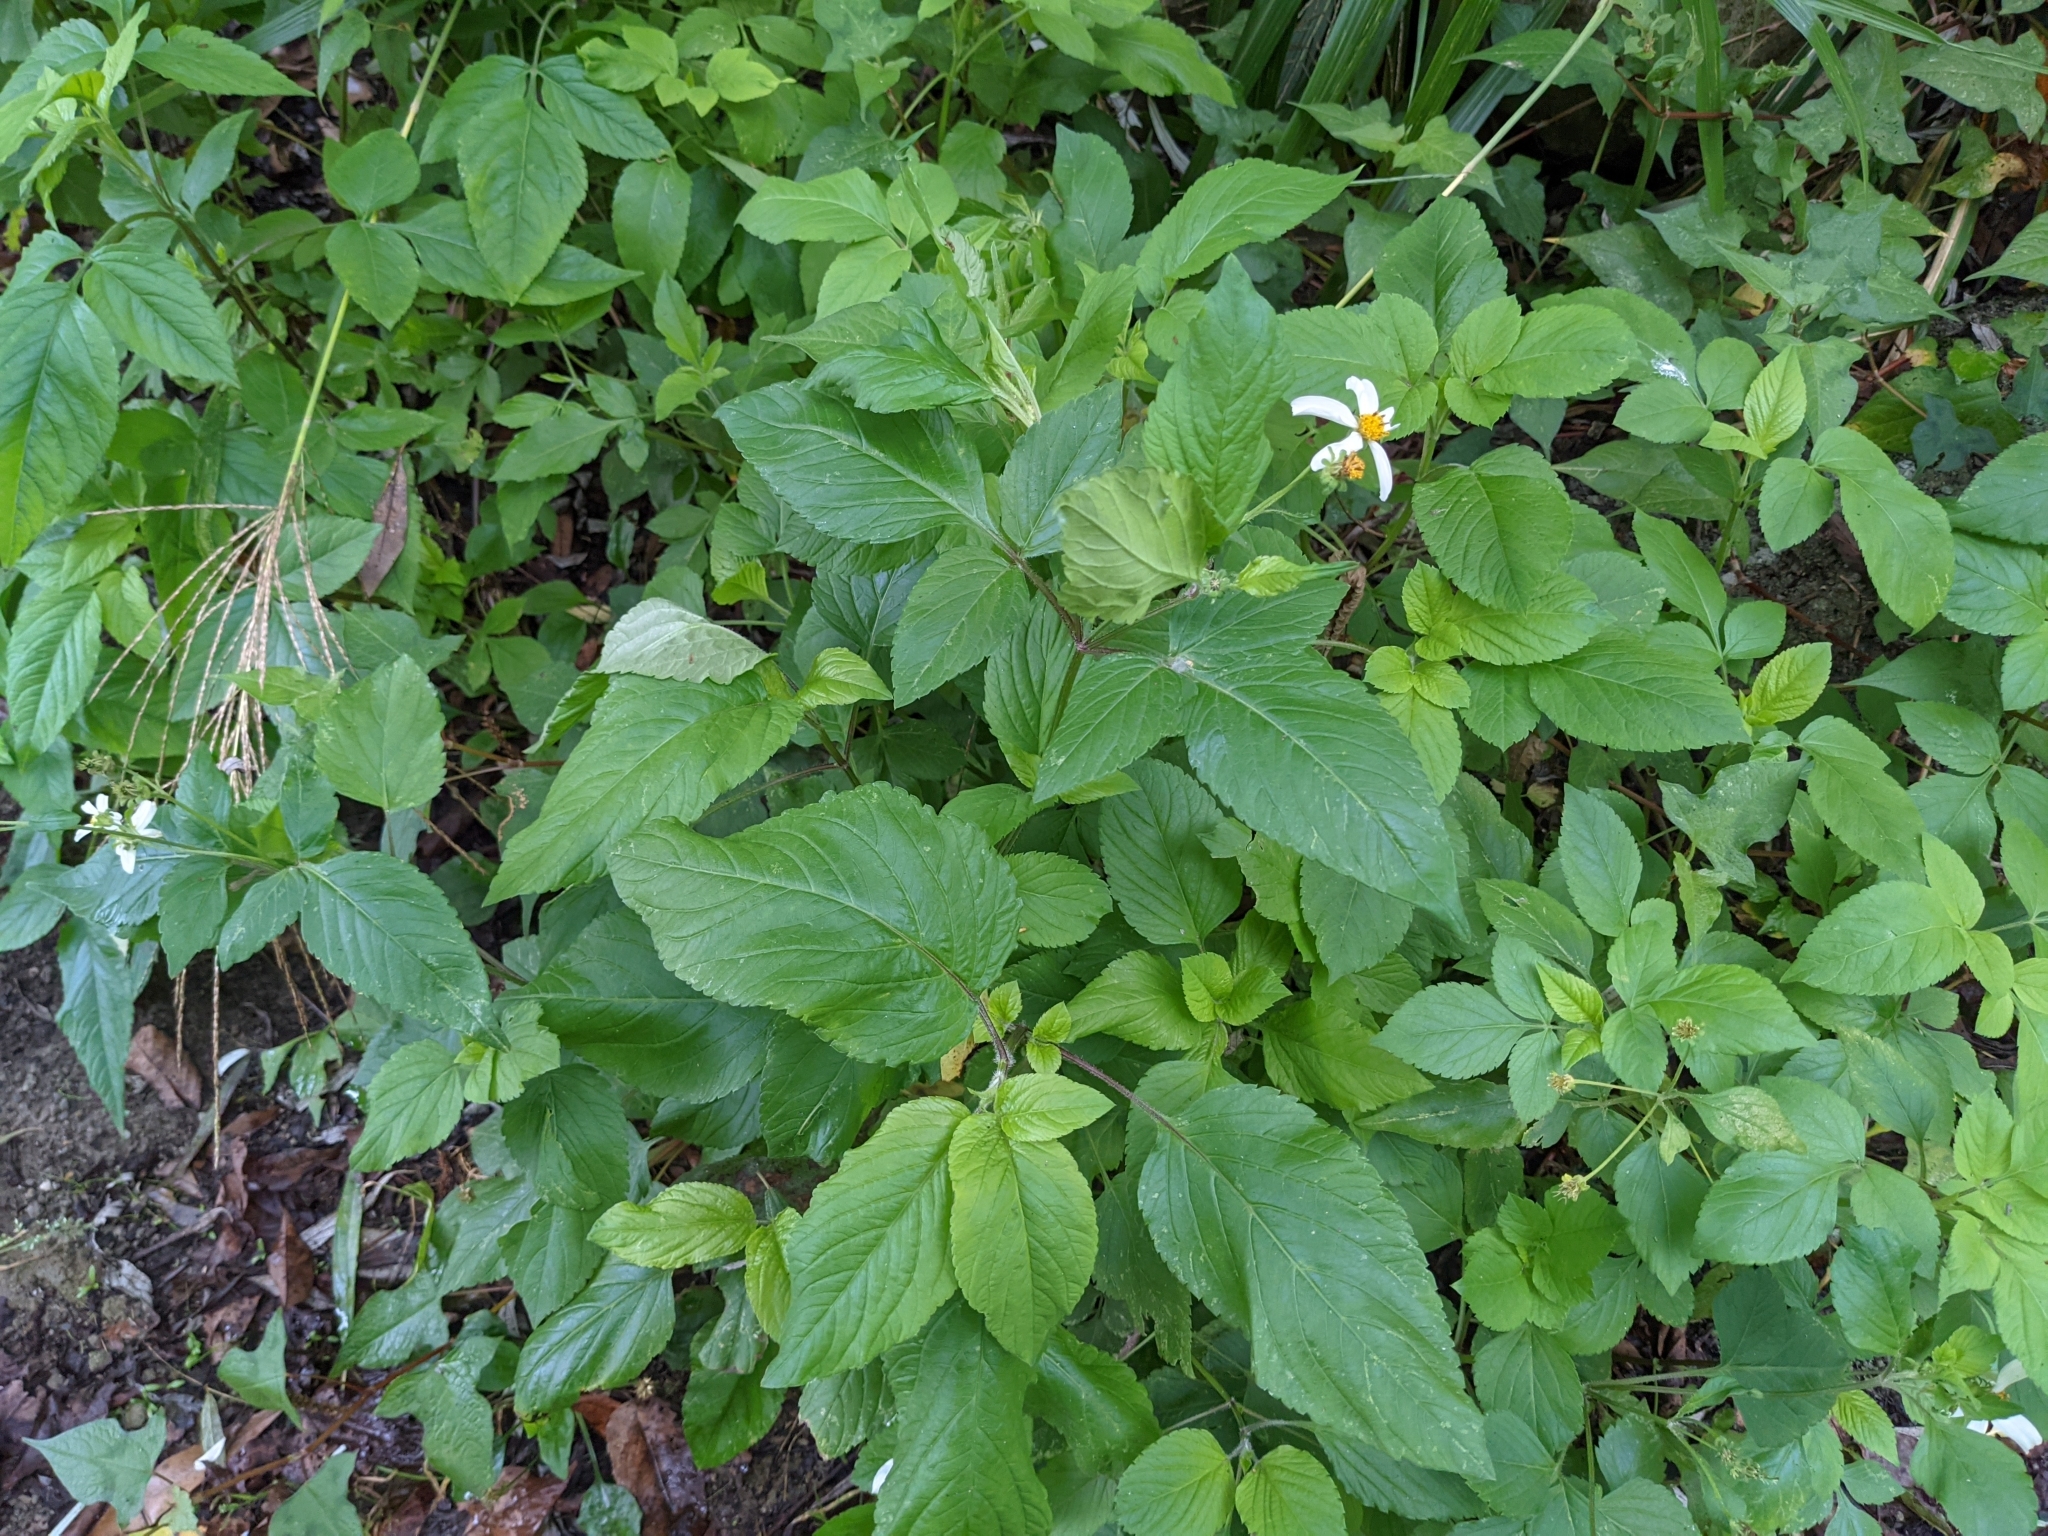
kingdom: Plantae
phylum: Tracheophyta
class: Magnoliopsida
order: Asterales
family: Asteraceae
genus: Bidens
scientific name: Bidens alba
